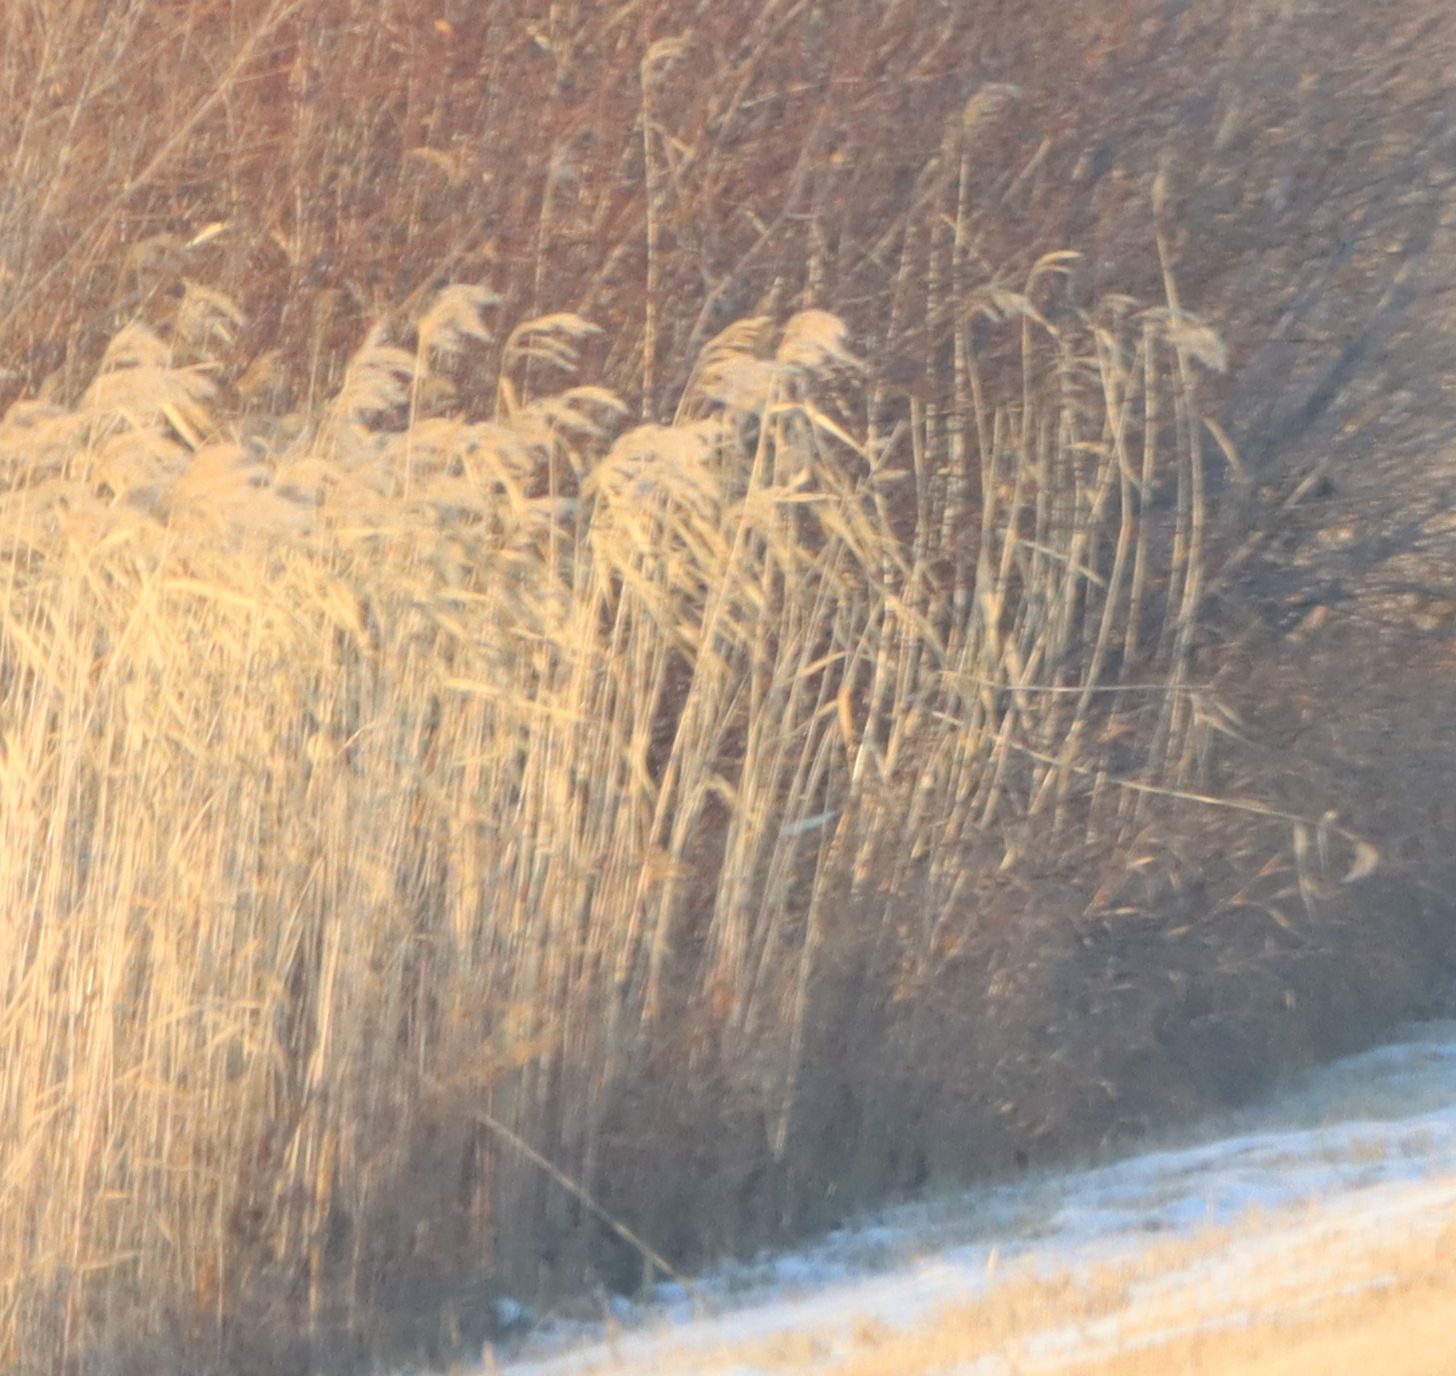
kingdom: Plantae
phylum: Tracheophyta
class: Liliopsida
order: Poales
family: Poaceae
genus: Phragmites
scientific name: Phragmites australis
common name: Common reed
